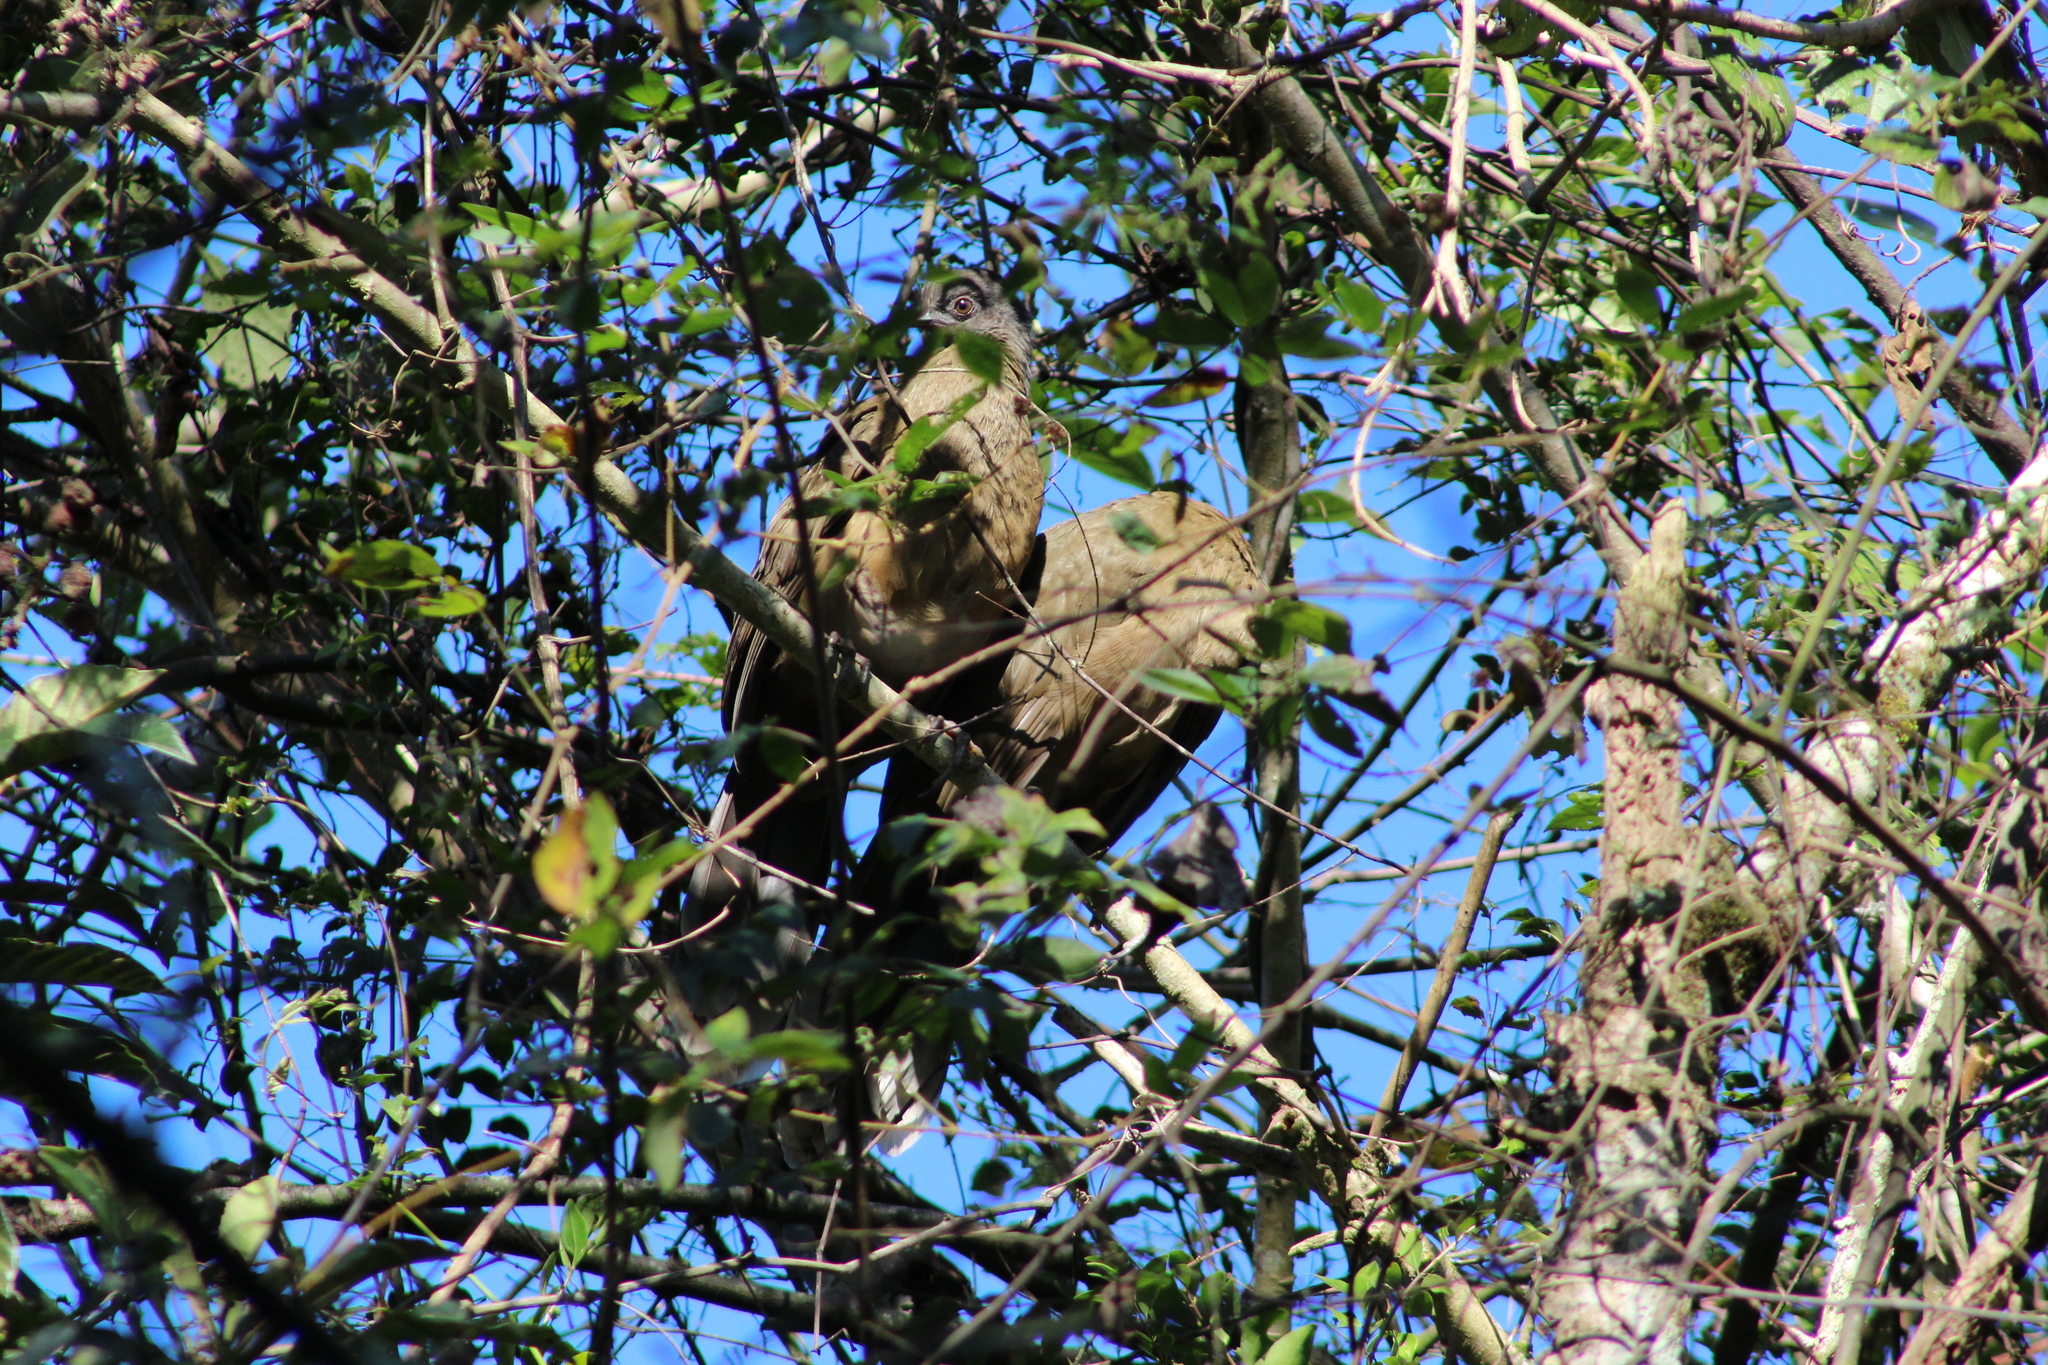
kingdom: Animalia
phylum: Chordata
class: Aves
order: Galliformes
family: Cracidae
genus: Ortalis
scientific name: Ortalis vetula
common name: Plain chachalaca
